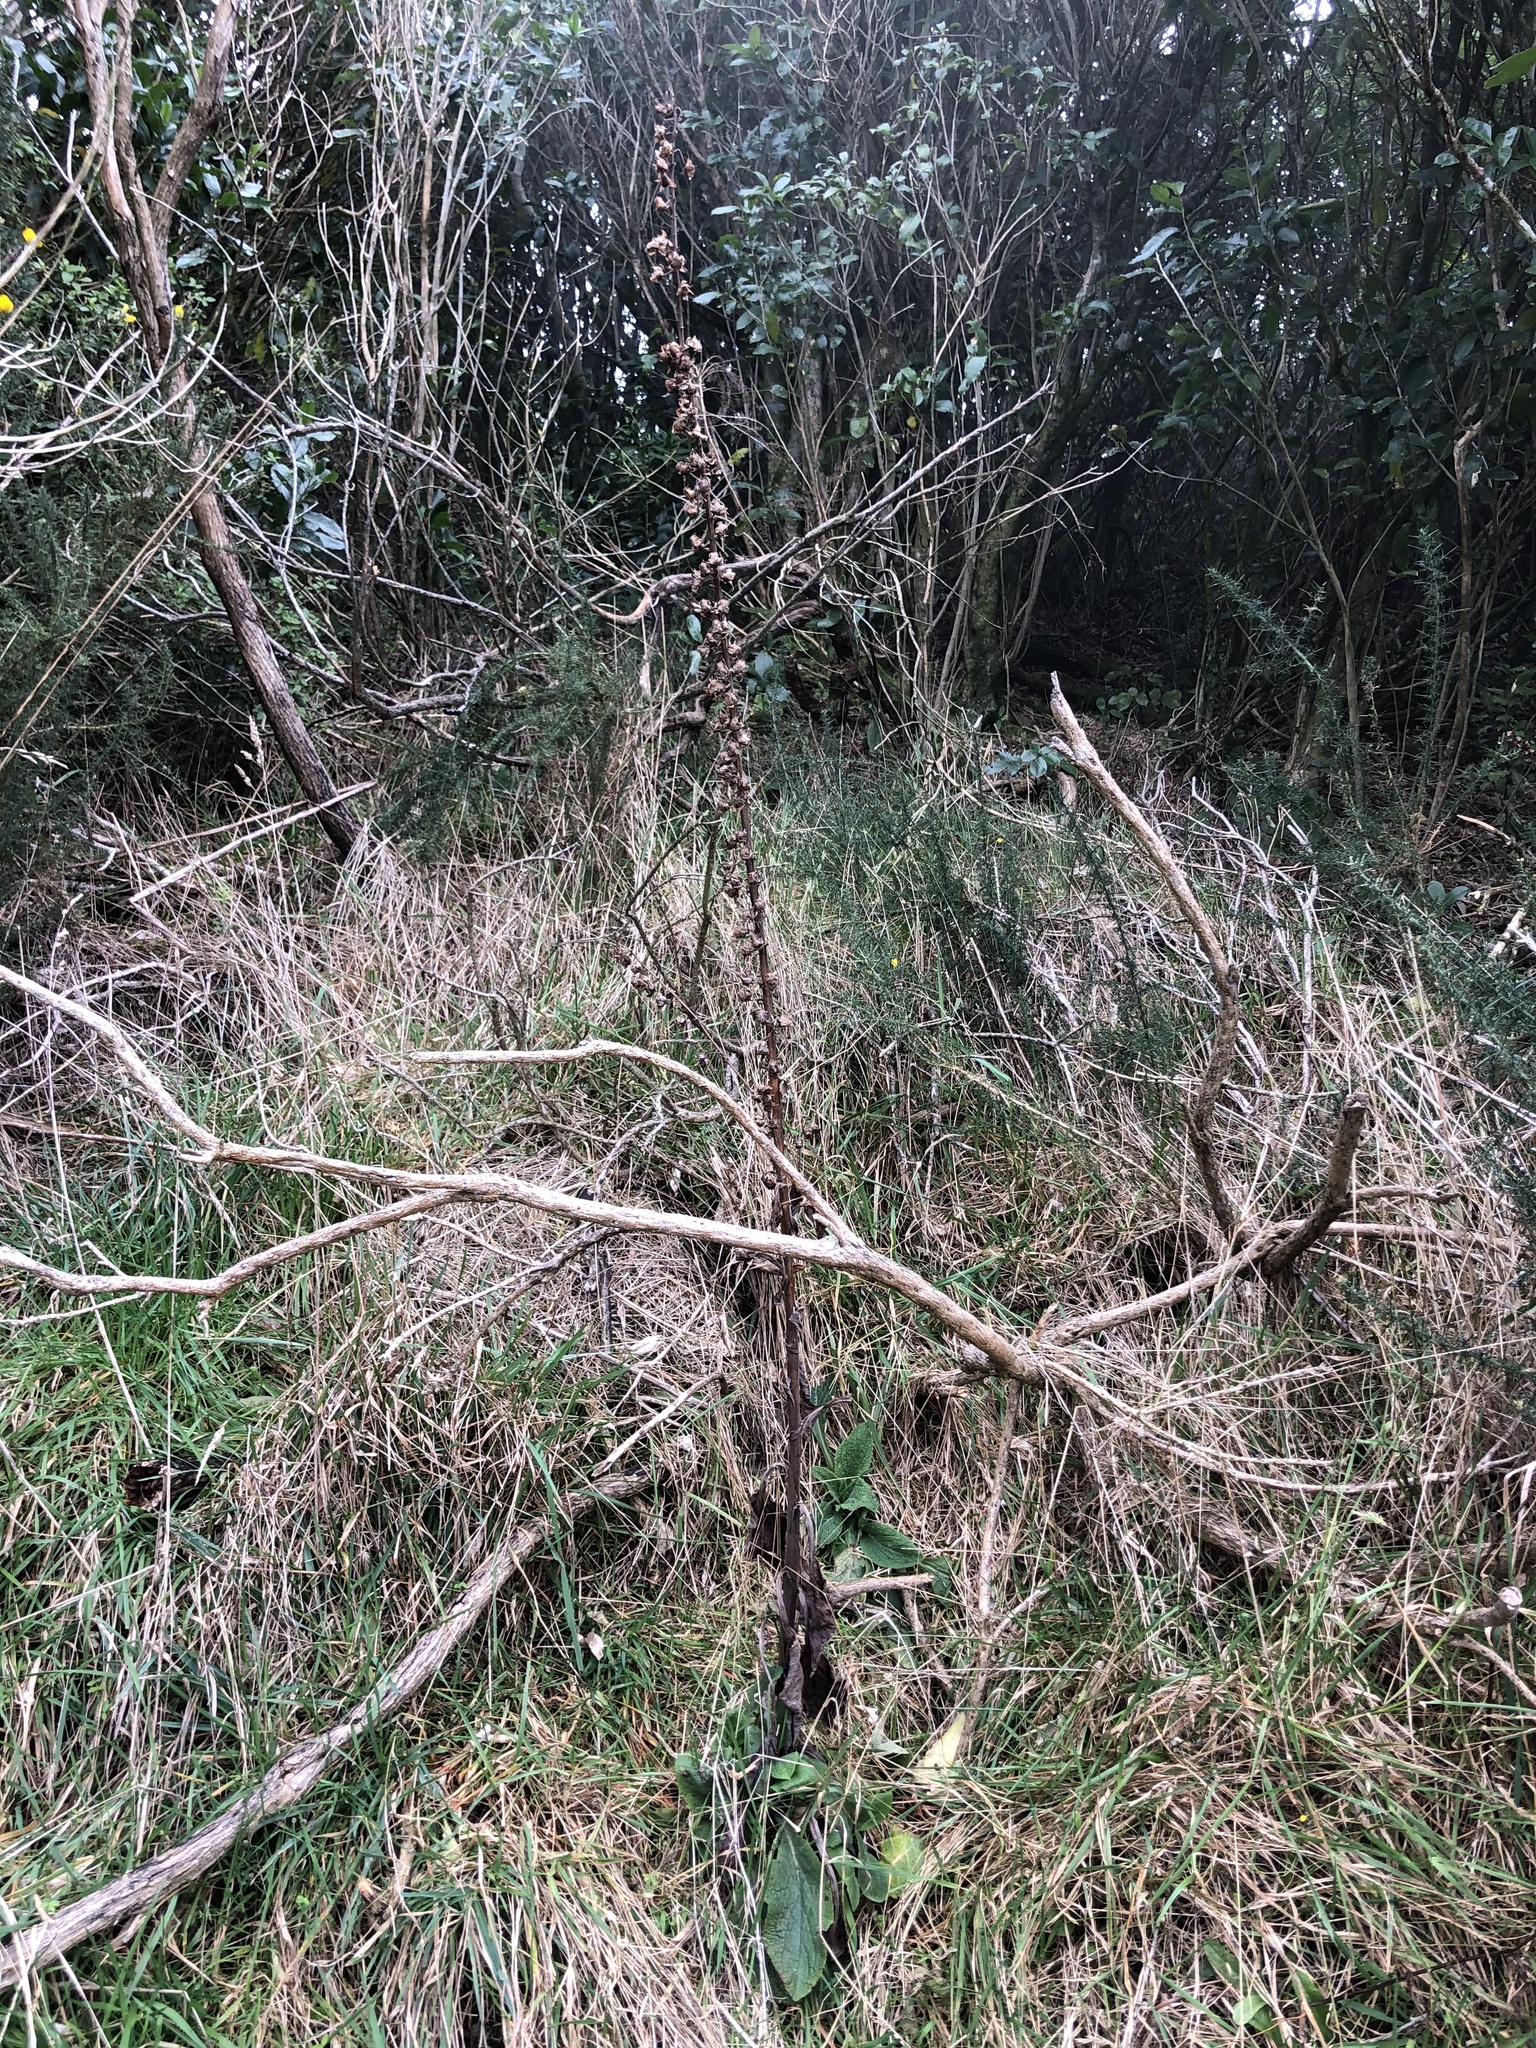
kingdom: Plantae
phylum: Tracheophyta
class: Magnoliopsida
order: Lamiales
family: Plantaginaceae
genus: Digitalis
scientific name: Digitalis purpurea
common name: Foxglove
